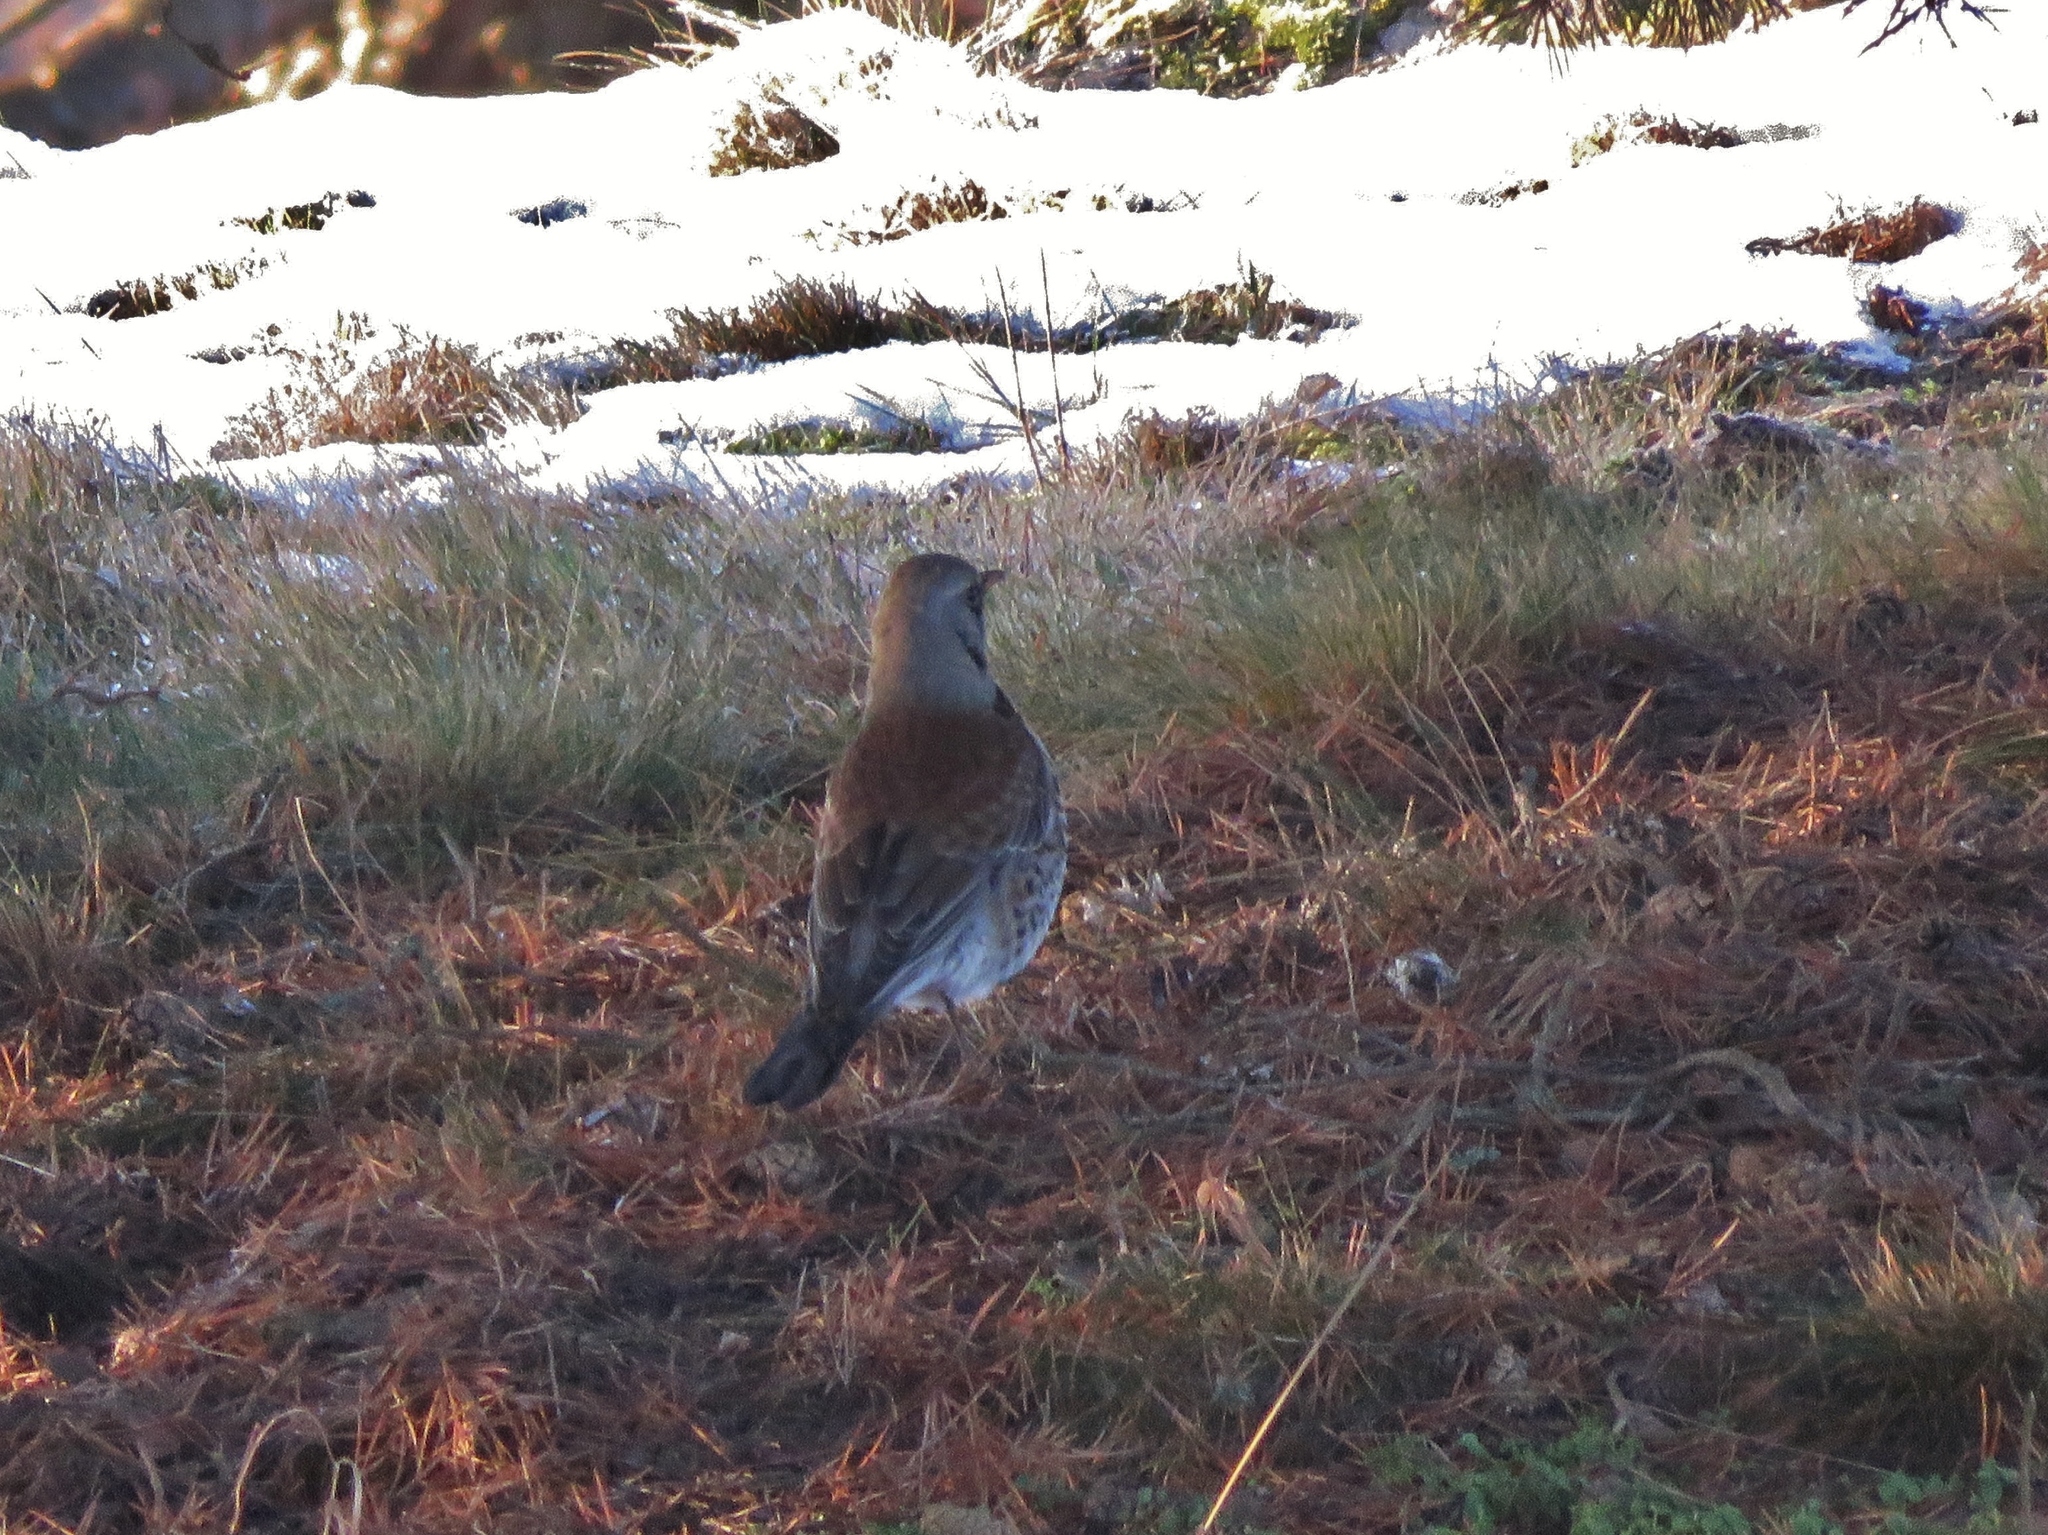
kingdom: Animalia
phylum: Chordata
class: Aves
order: Passeriformes
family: Turdidae
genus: Turdus
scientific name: Turdus pilaris
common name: Fieldfare
